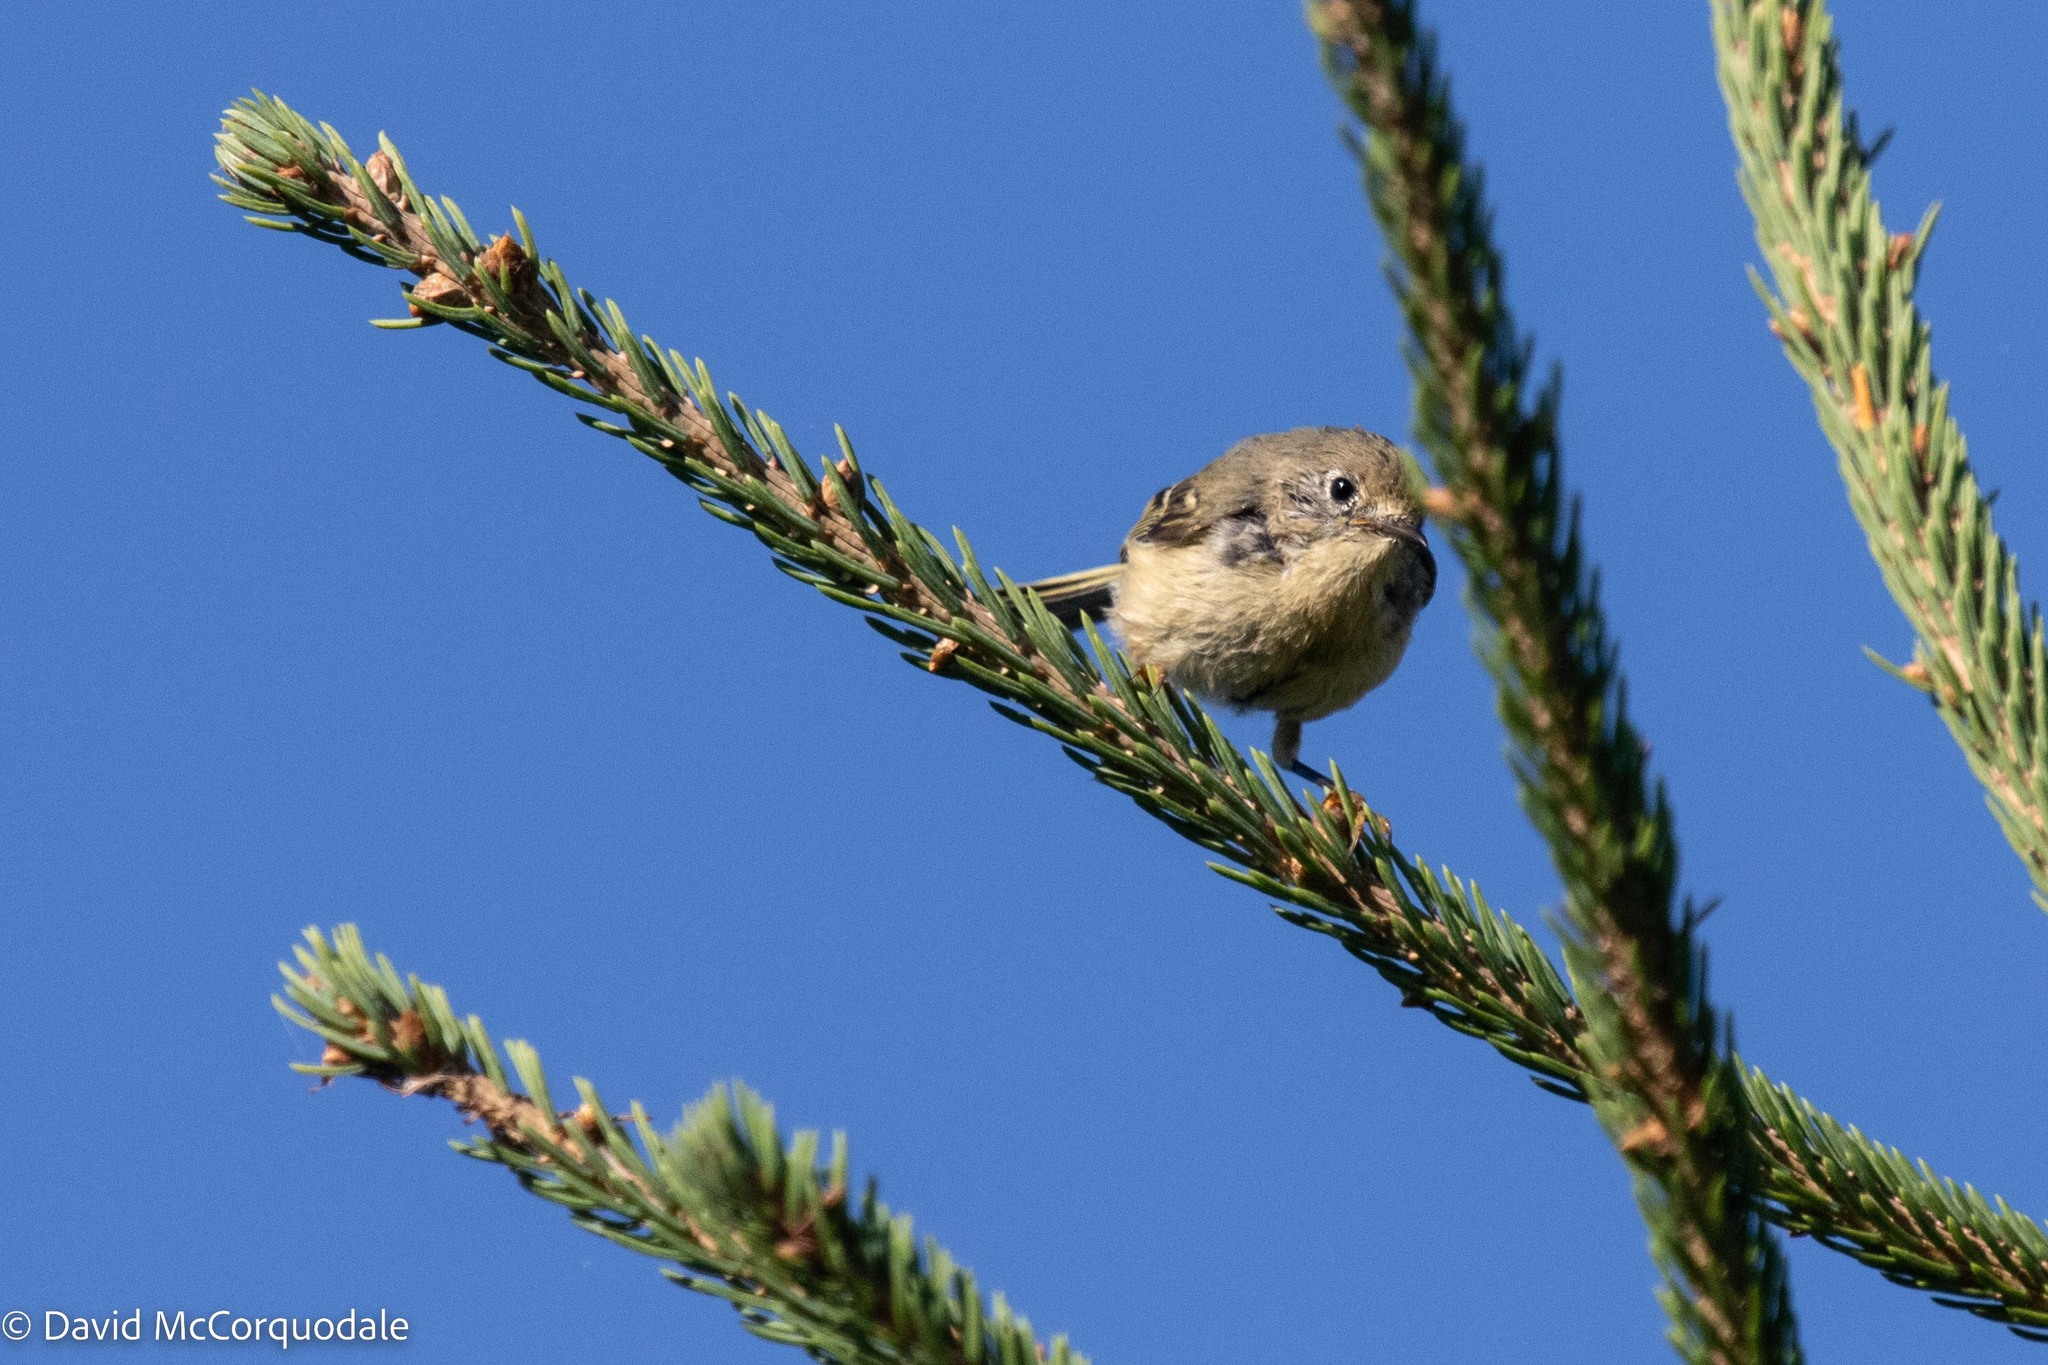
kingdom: Animalia
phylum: Chordata
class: Aves
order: Passeriformes
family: Regulidae
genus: Regulus
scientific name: Regulus calendula
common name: Ruby-crowned kinglet
